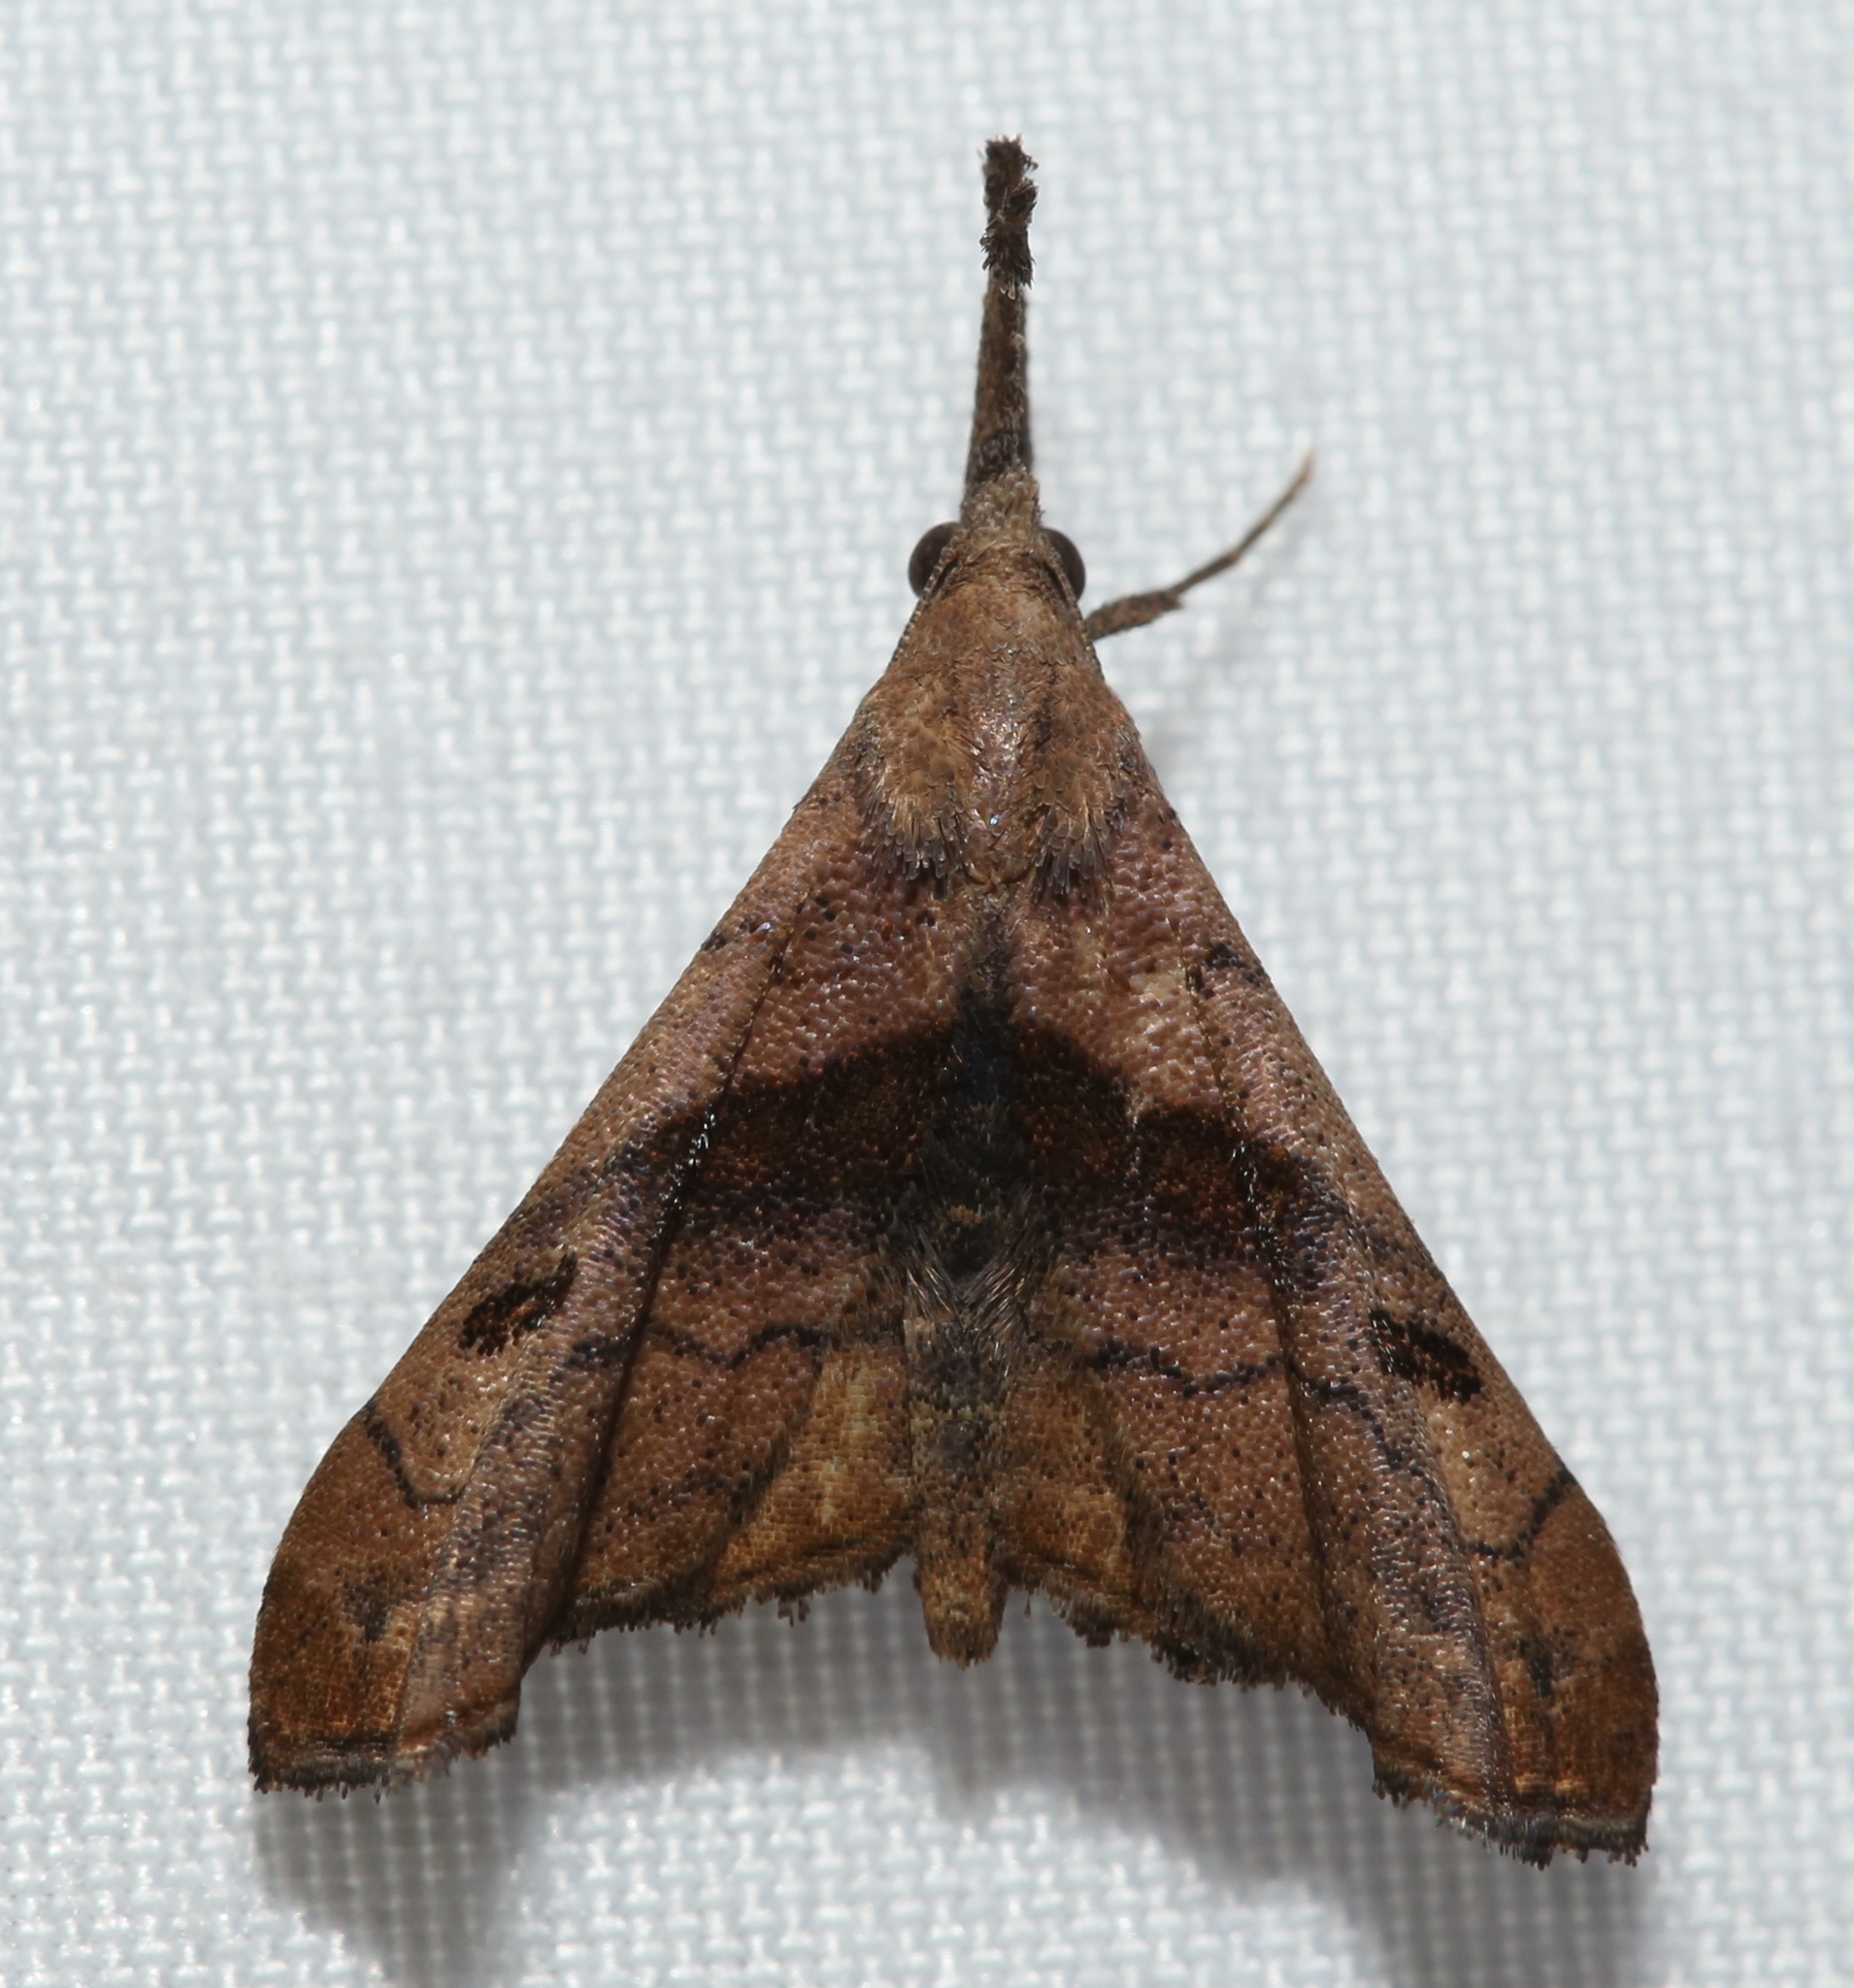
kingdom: Animalia
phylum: Arthropoda
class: Insecta
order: Lepidoptera
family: Erebidae
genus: Palthis
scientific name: Palthis angulalis
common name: Dark-spotted palthis moth
